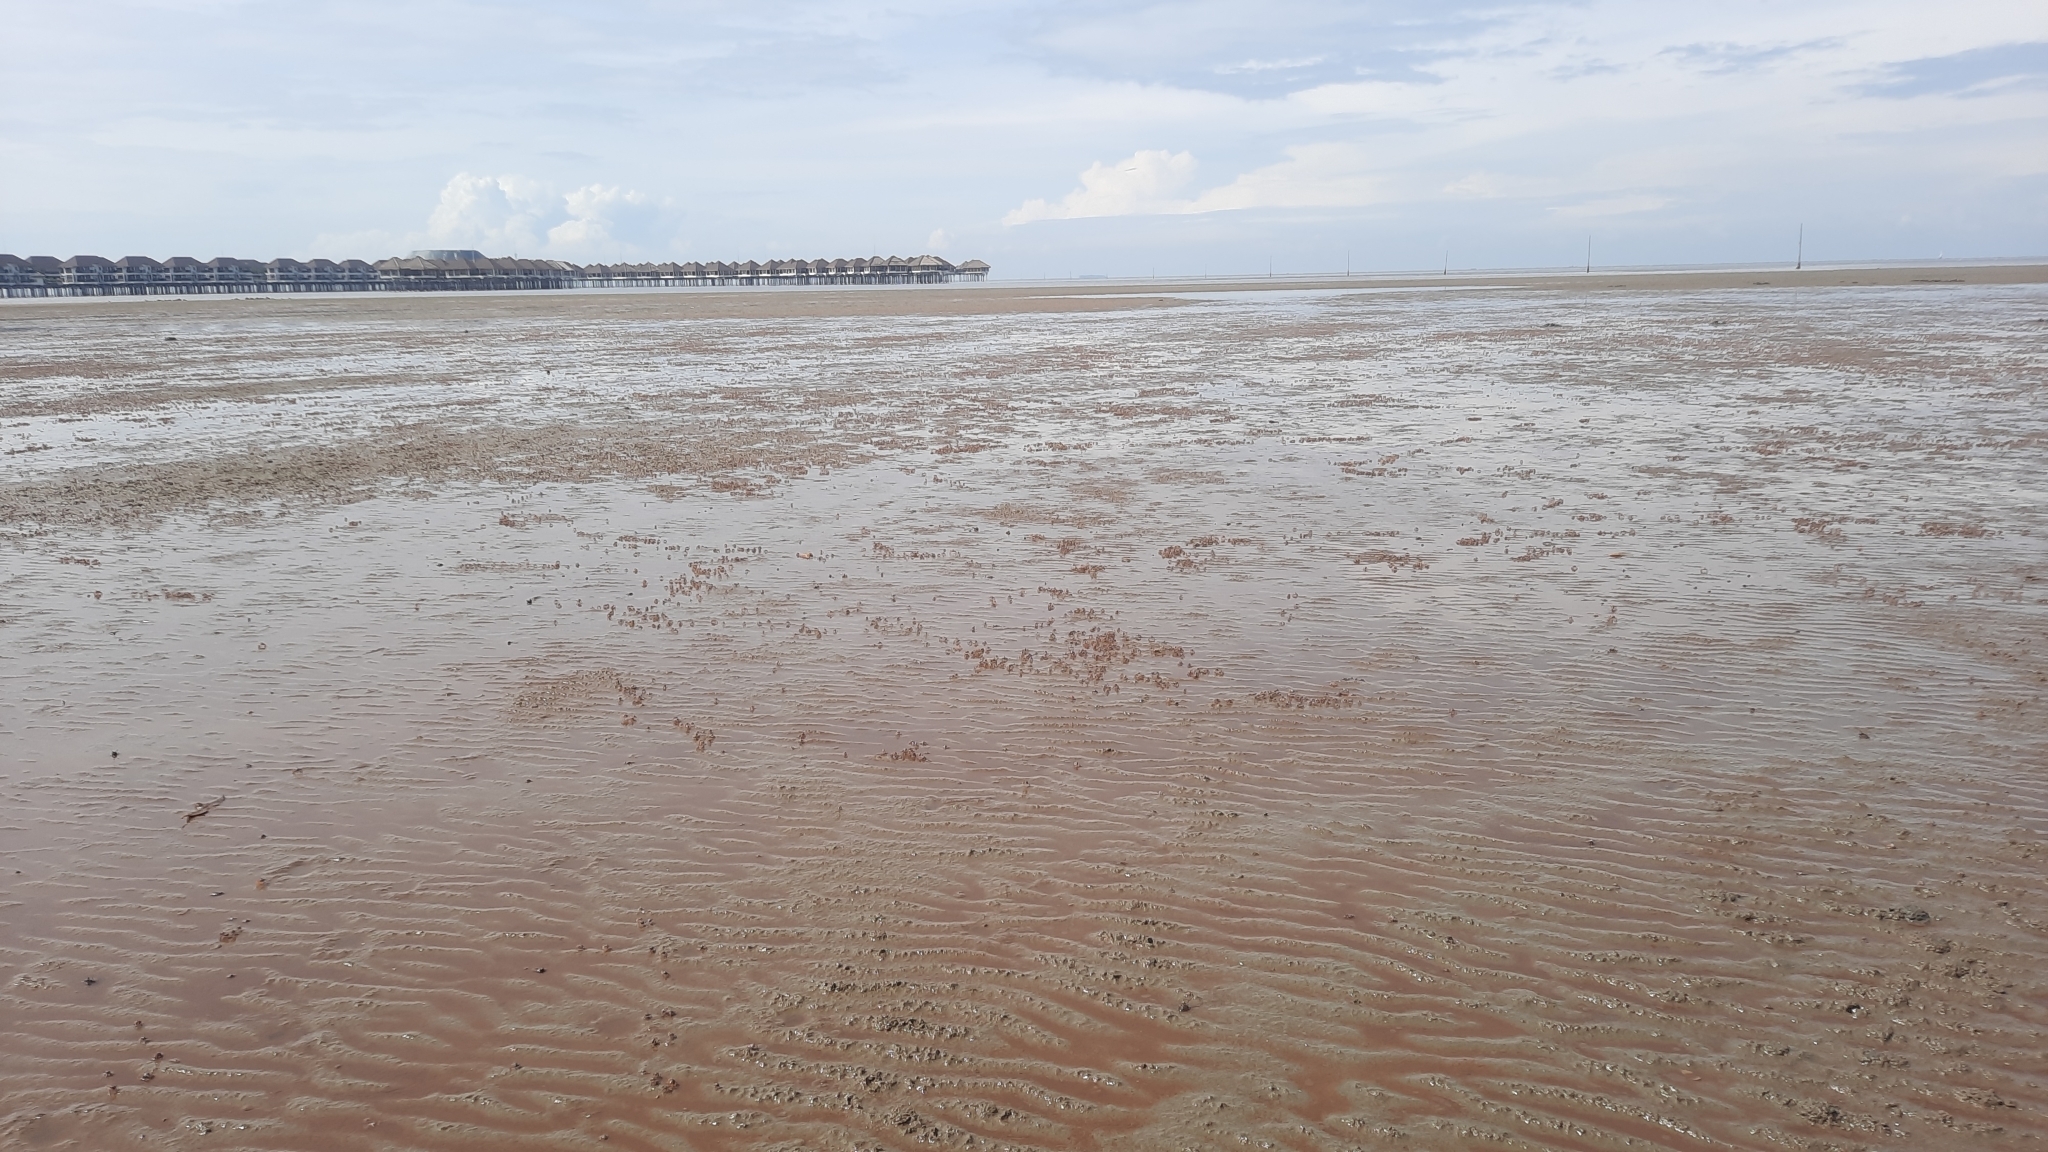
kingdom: Animalia
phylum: Arthropoda
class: Malacostraca
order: Decapoda
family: Dotillidae
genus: Dotilla
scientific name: Dotilla myctiroides
